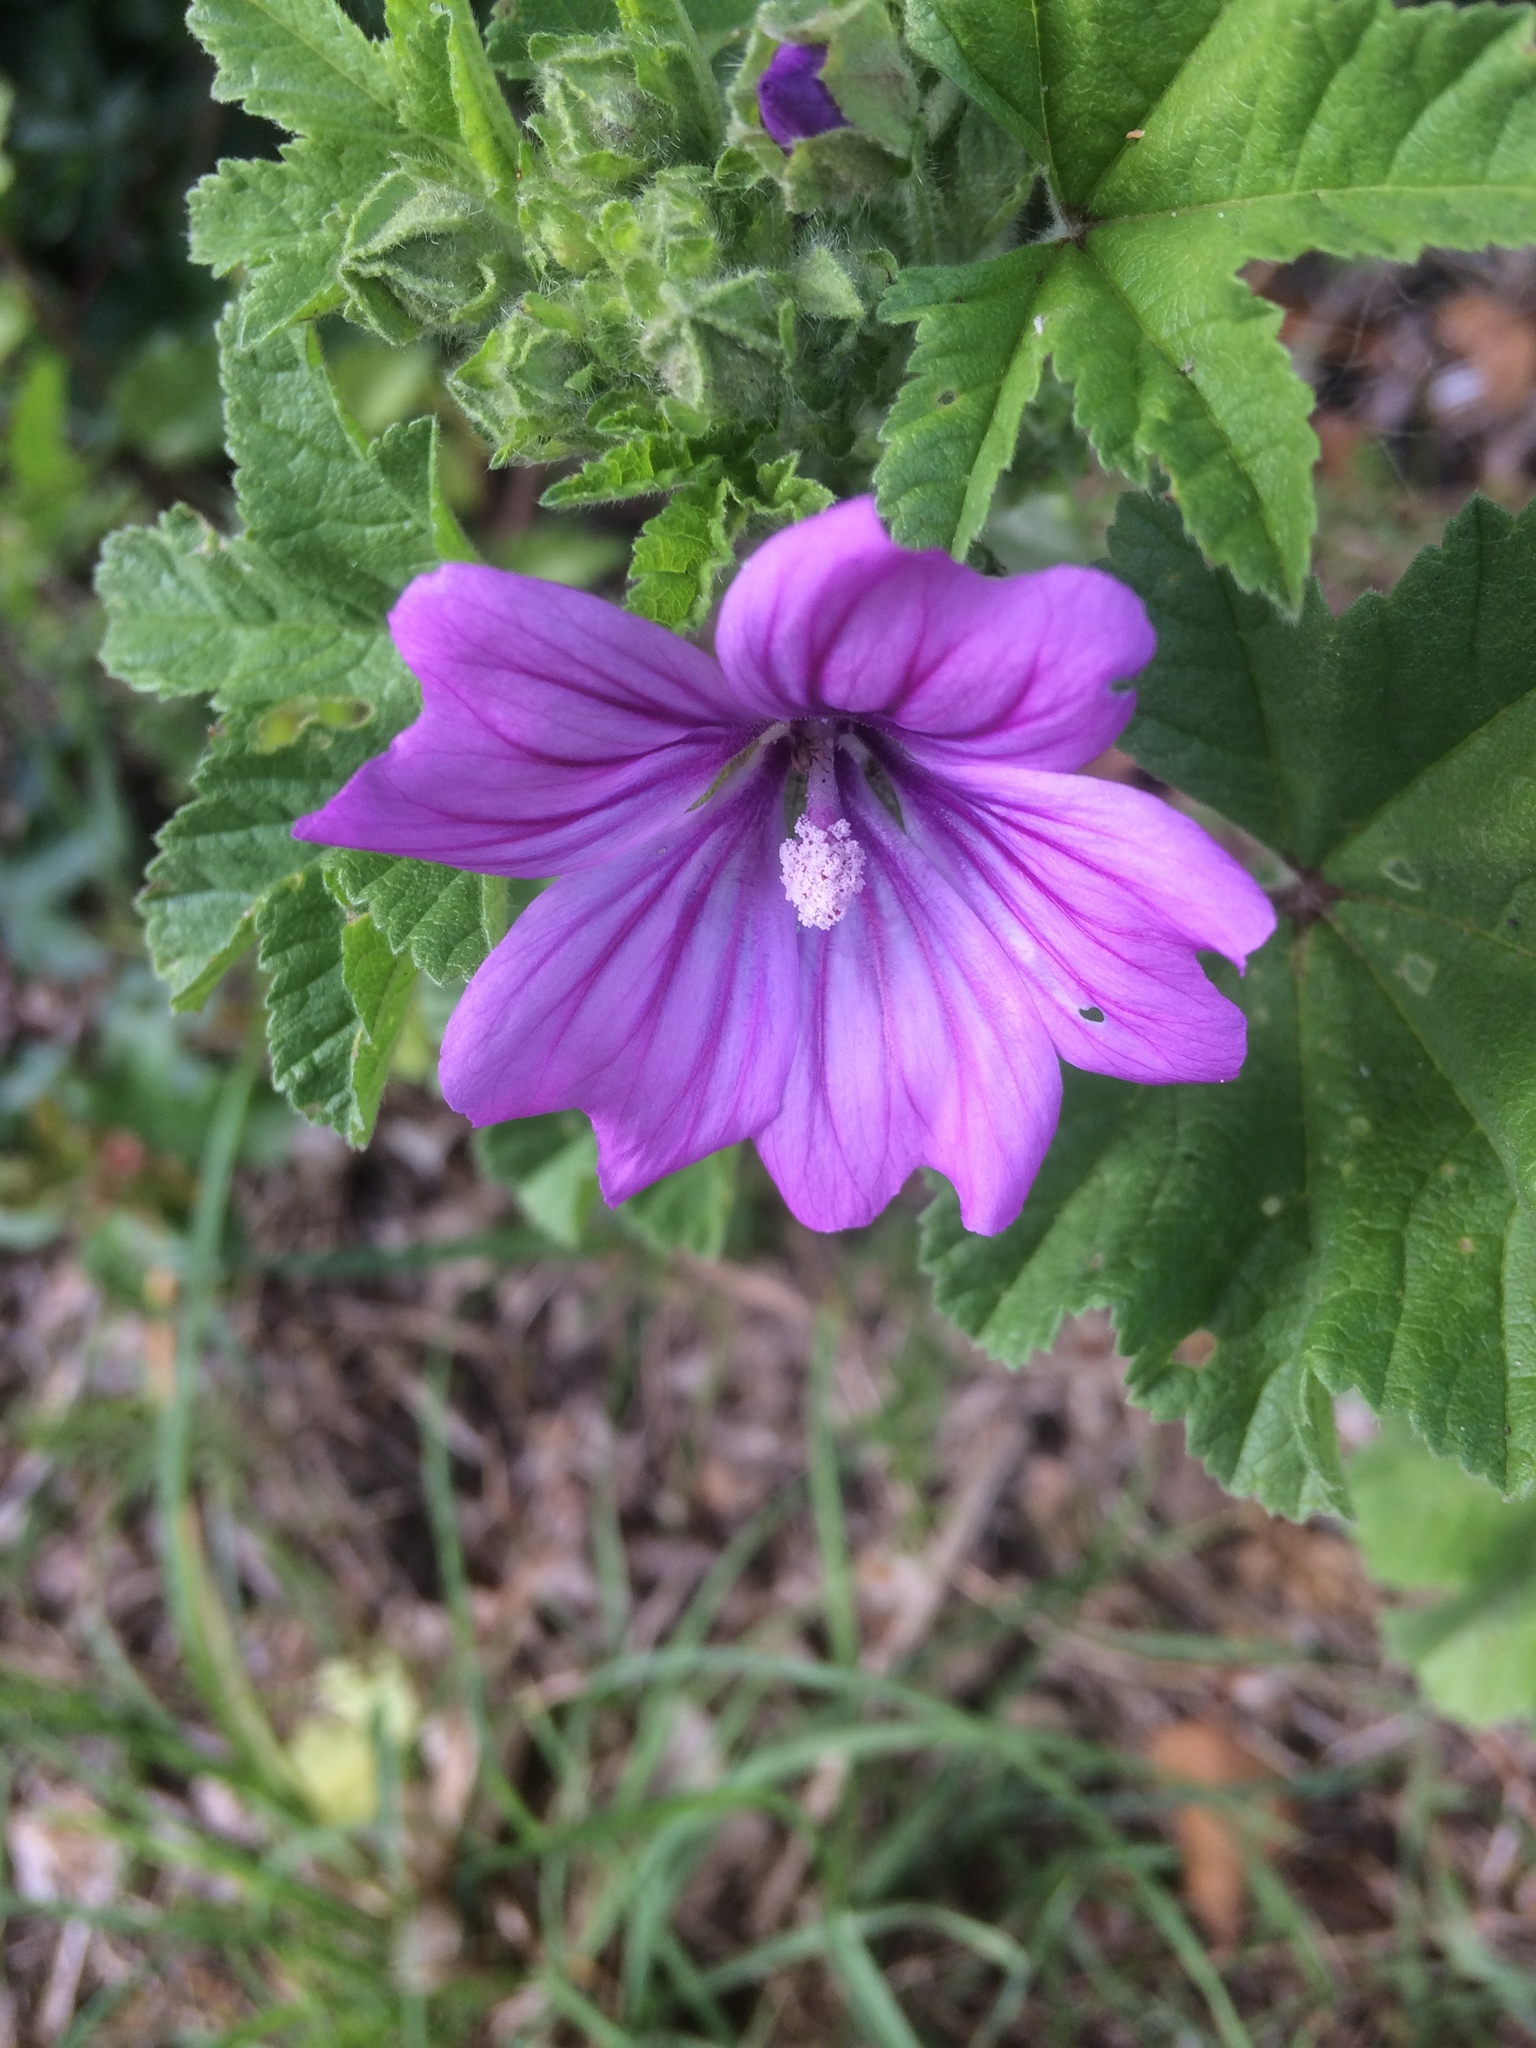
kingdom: Plantae
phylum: Tracheophyta
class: Magnoliopsida
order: Malvales
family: Malvaceae
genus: Malva
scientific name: Malva sylvestris
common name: Common mallow
